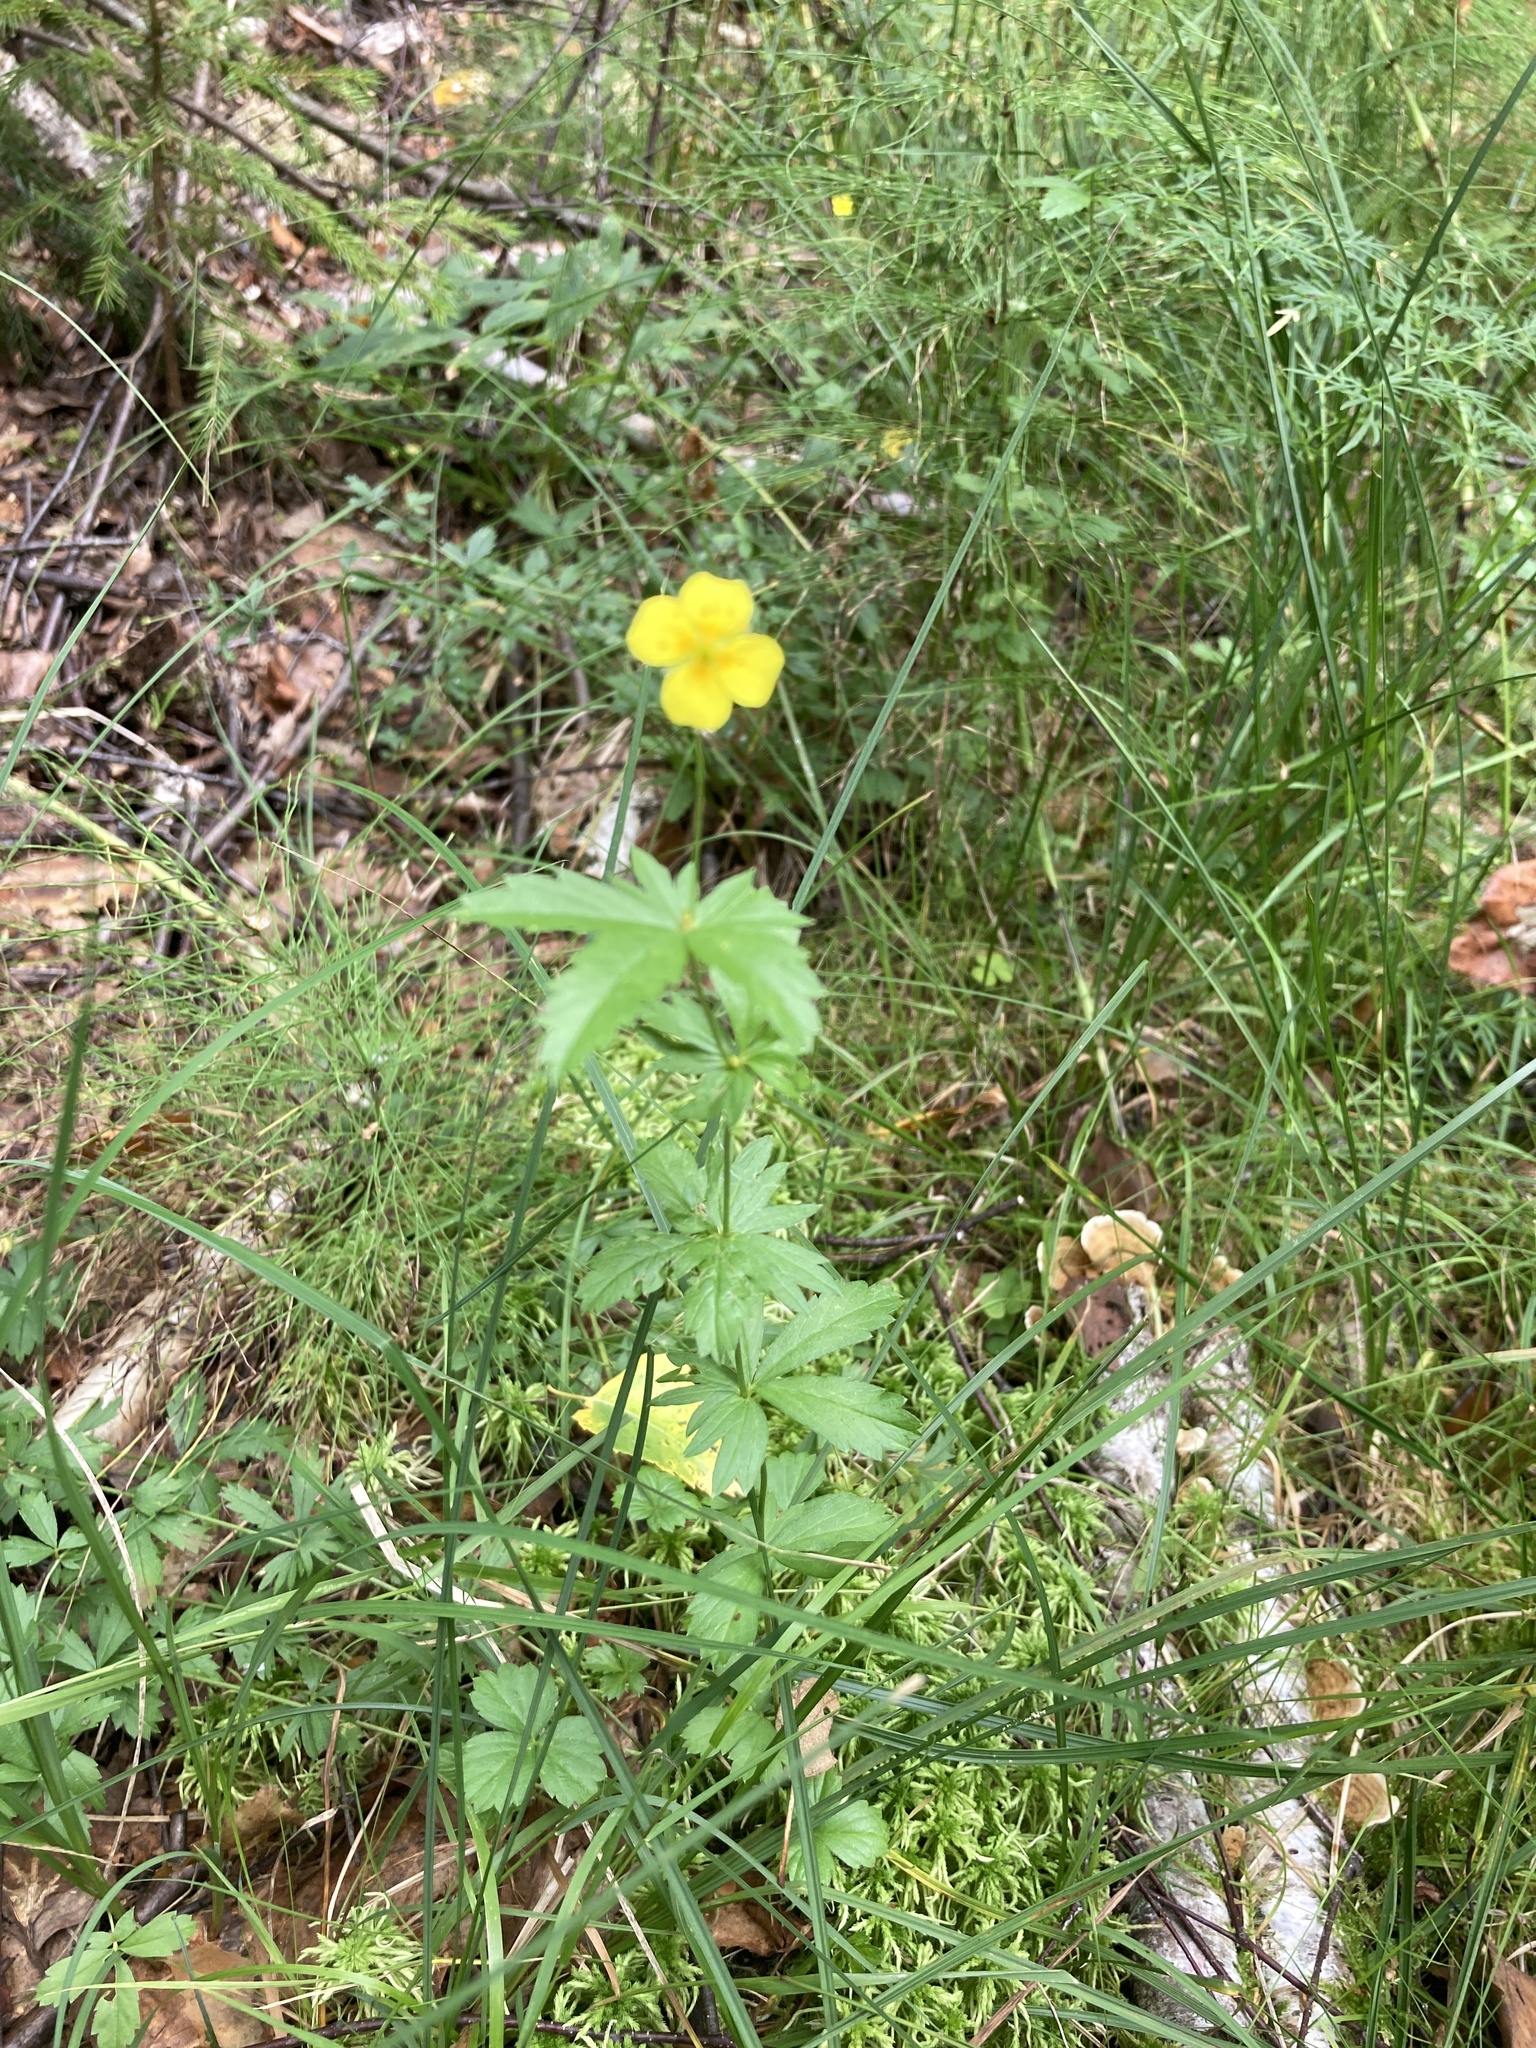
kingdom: Plantae
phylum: Tracheophyta
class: Magnoliopsida
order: Rosales
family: Rosaceae
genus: Potentilla
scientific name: Potentilla erecta
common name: Tormentil
